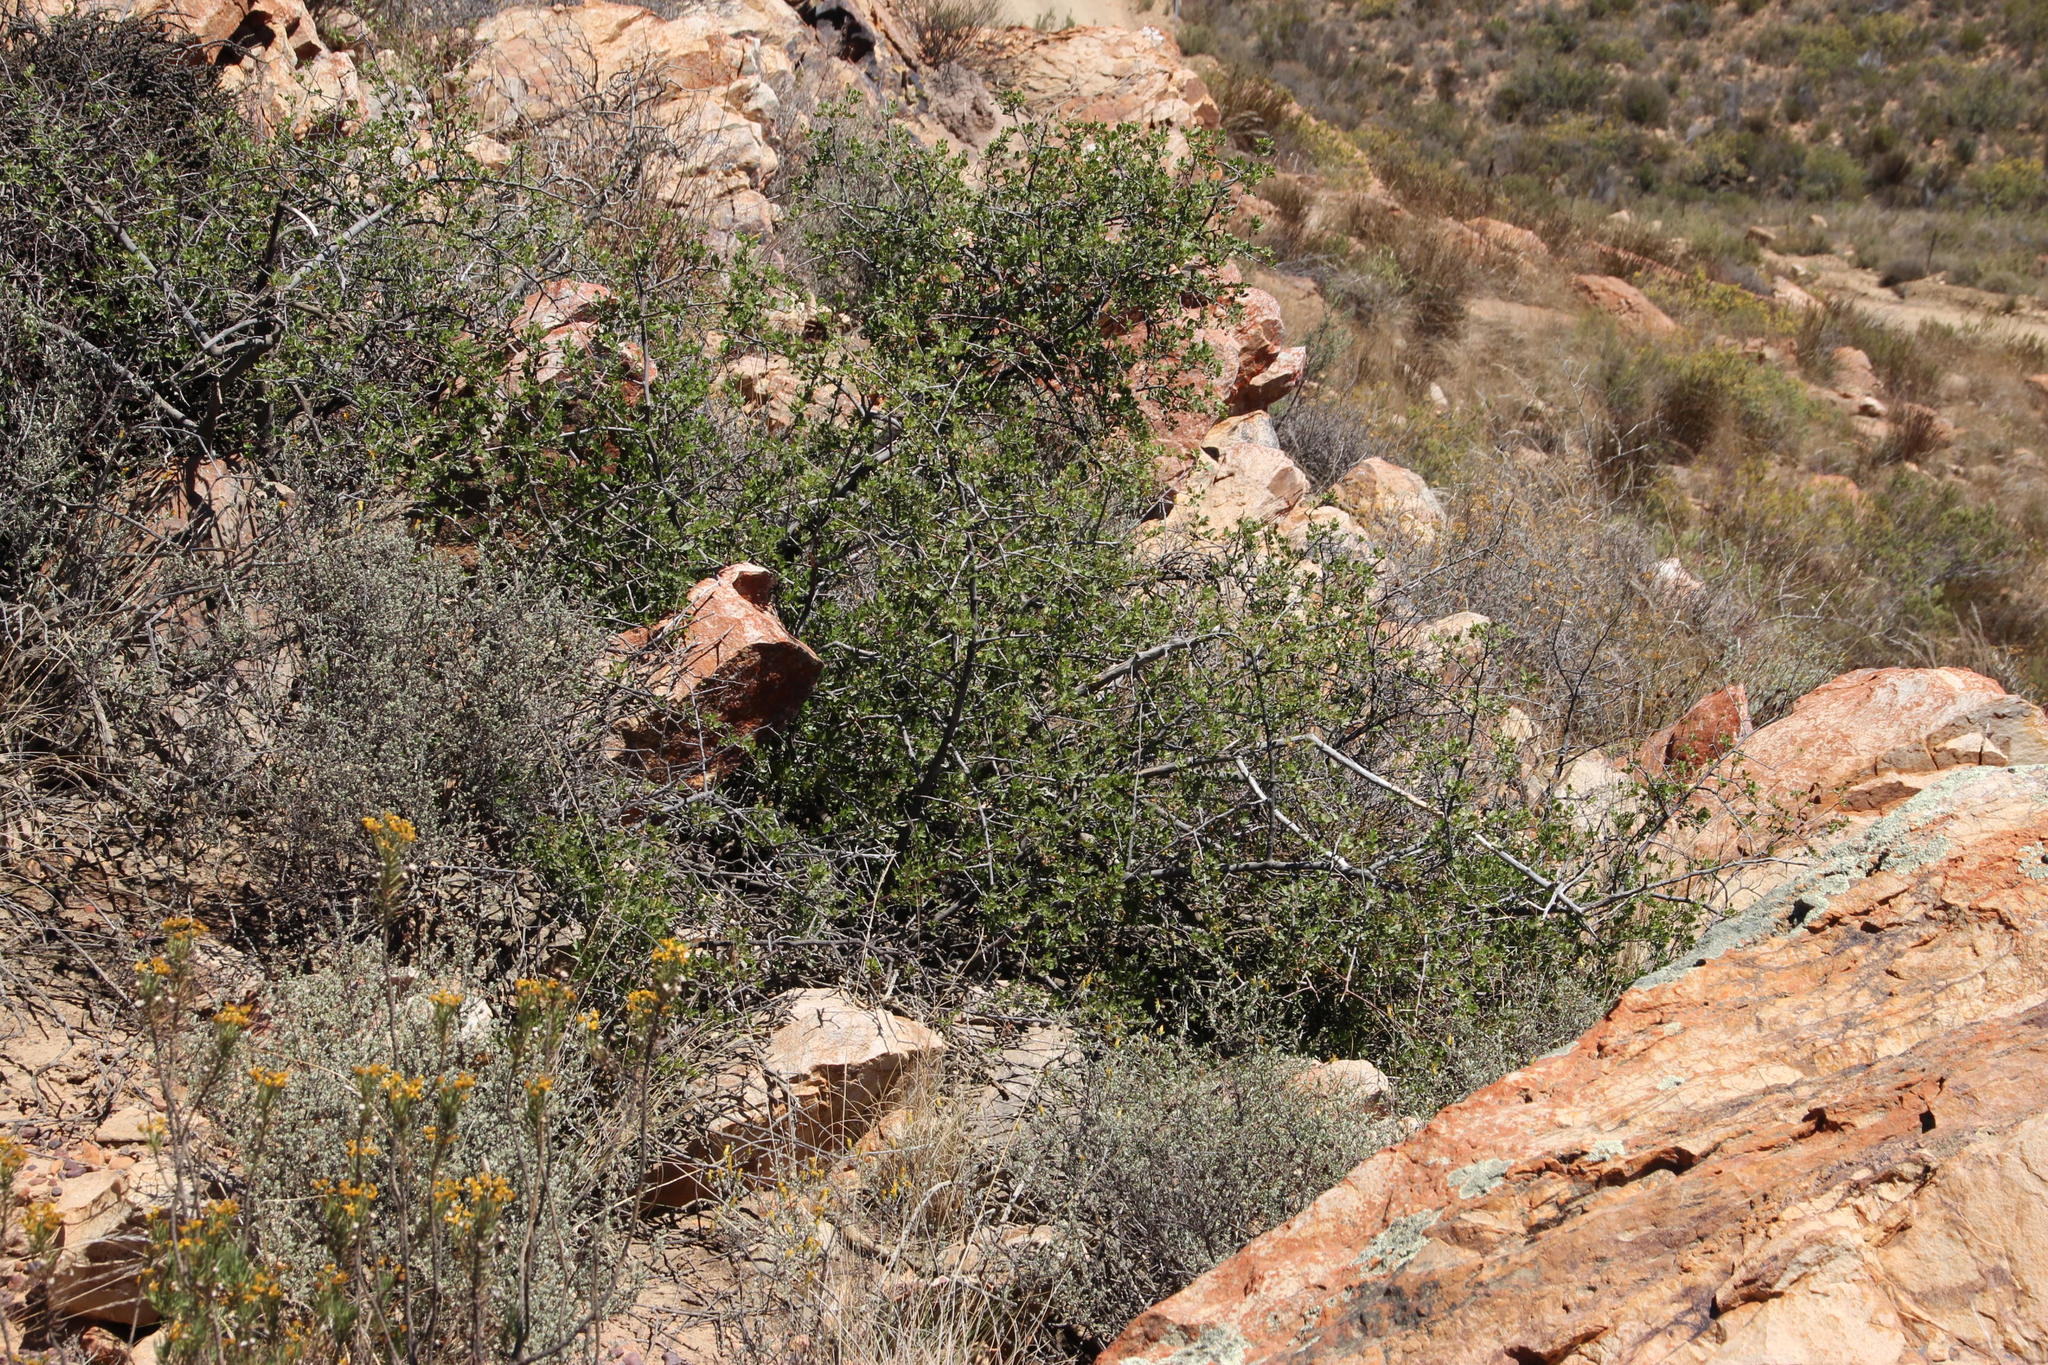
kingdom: Plantae
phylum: Tracheophyta
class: Magnoliopsida
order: Sapindales
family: Anacardiaceae
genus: Searsia
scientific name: Searsia undulata
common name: Namaqua kunibush
